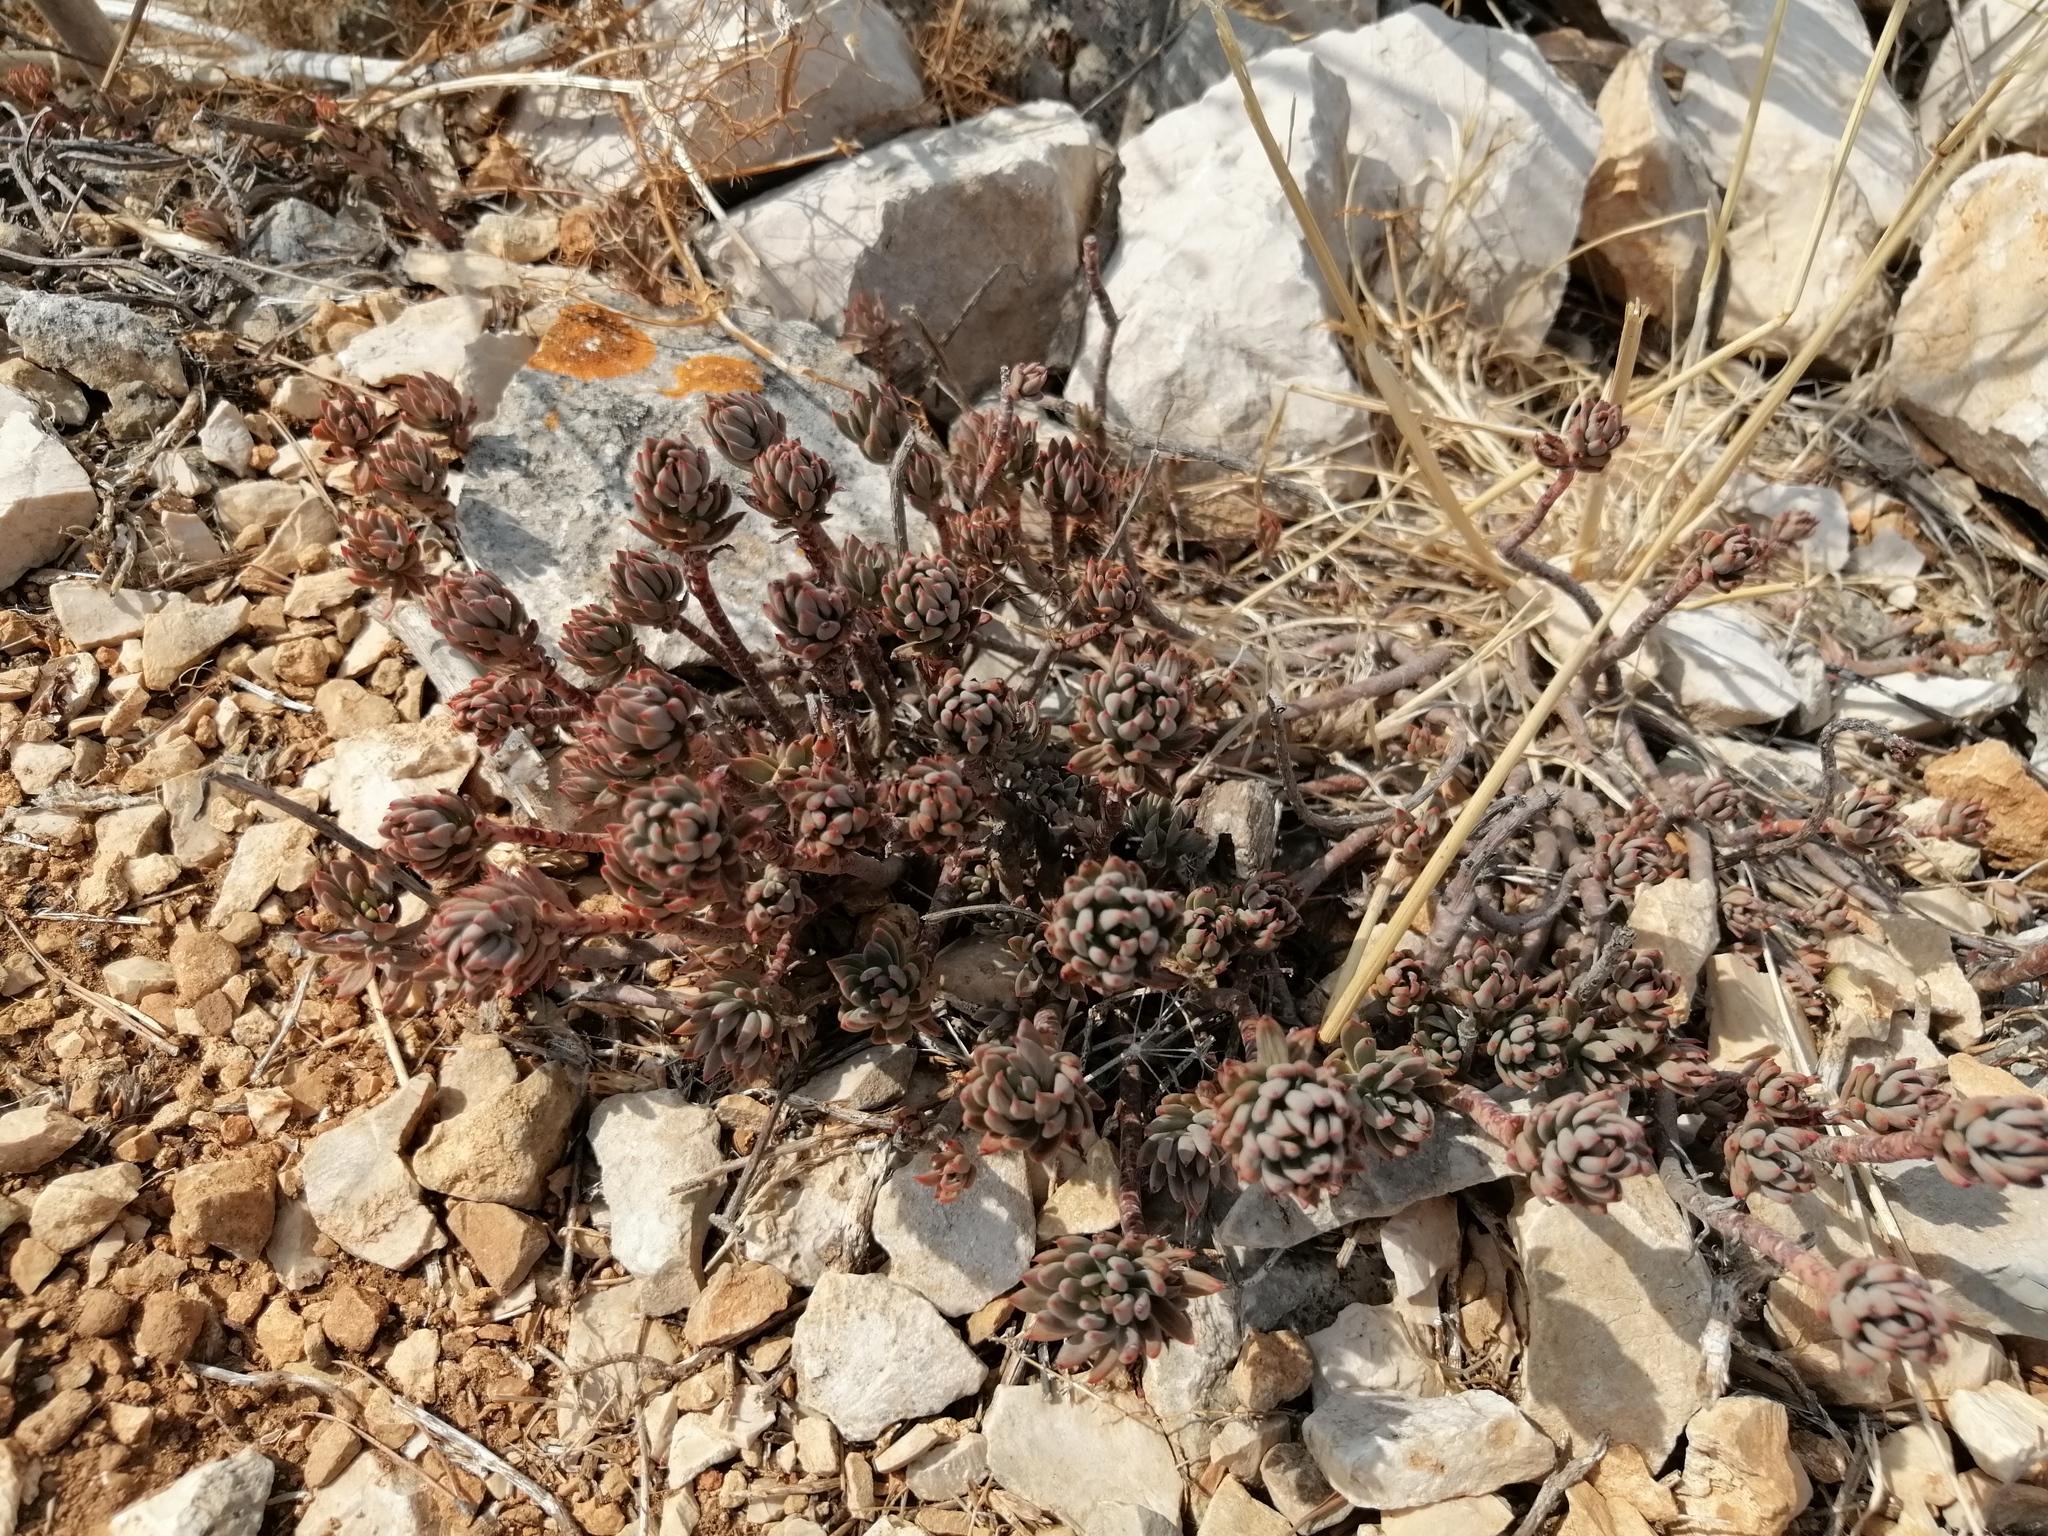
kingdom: Plantae
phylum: Tracheophyta
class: Magnoliopsida
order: Saxifragales
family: Crassulaceae
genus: Petrosedum
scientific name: Petrosedum sediforme
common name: Pale stonecrop
